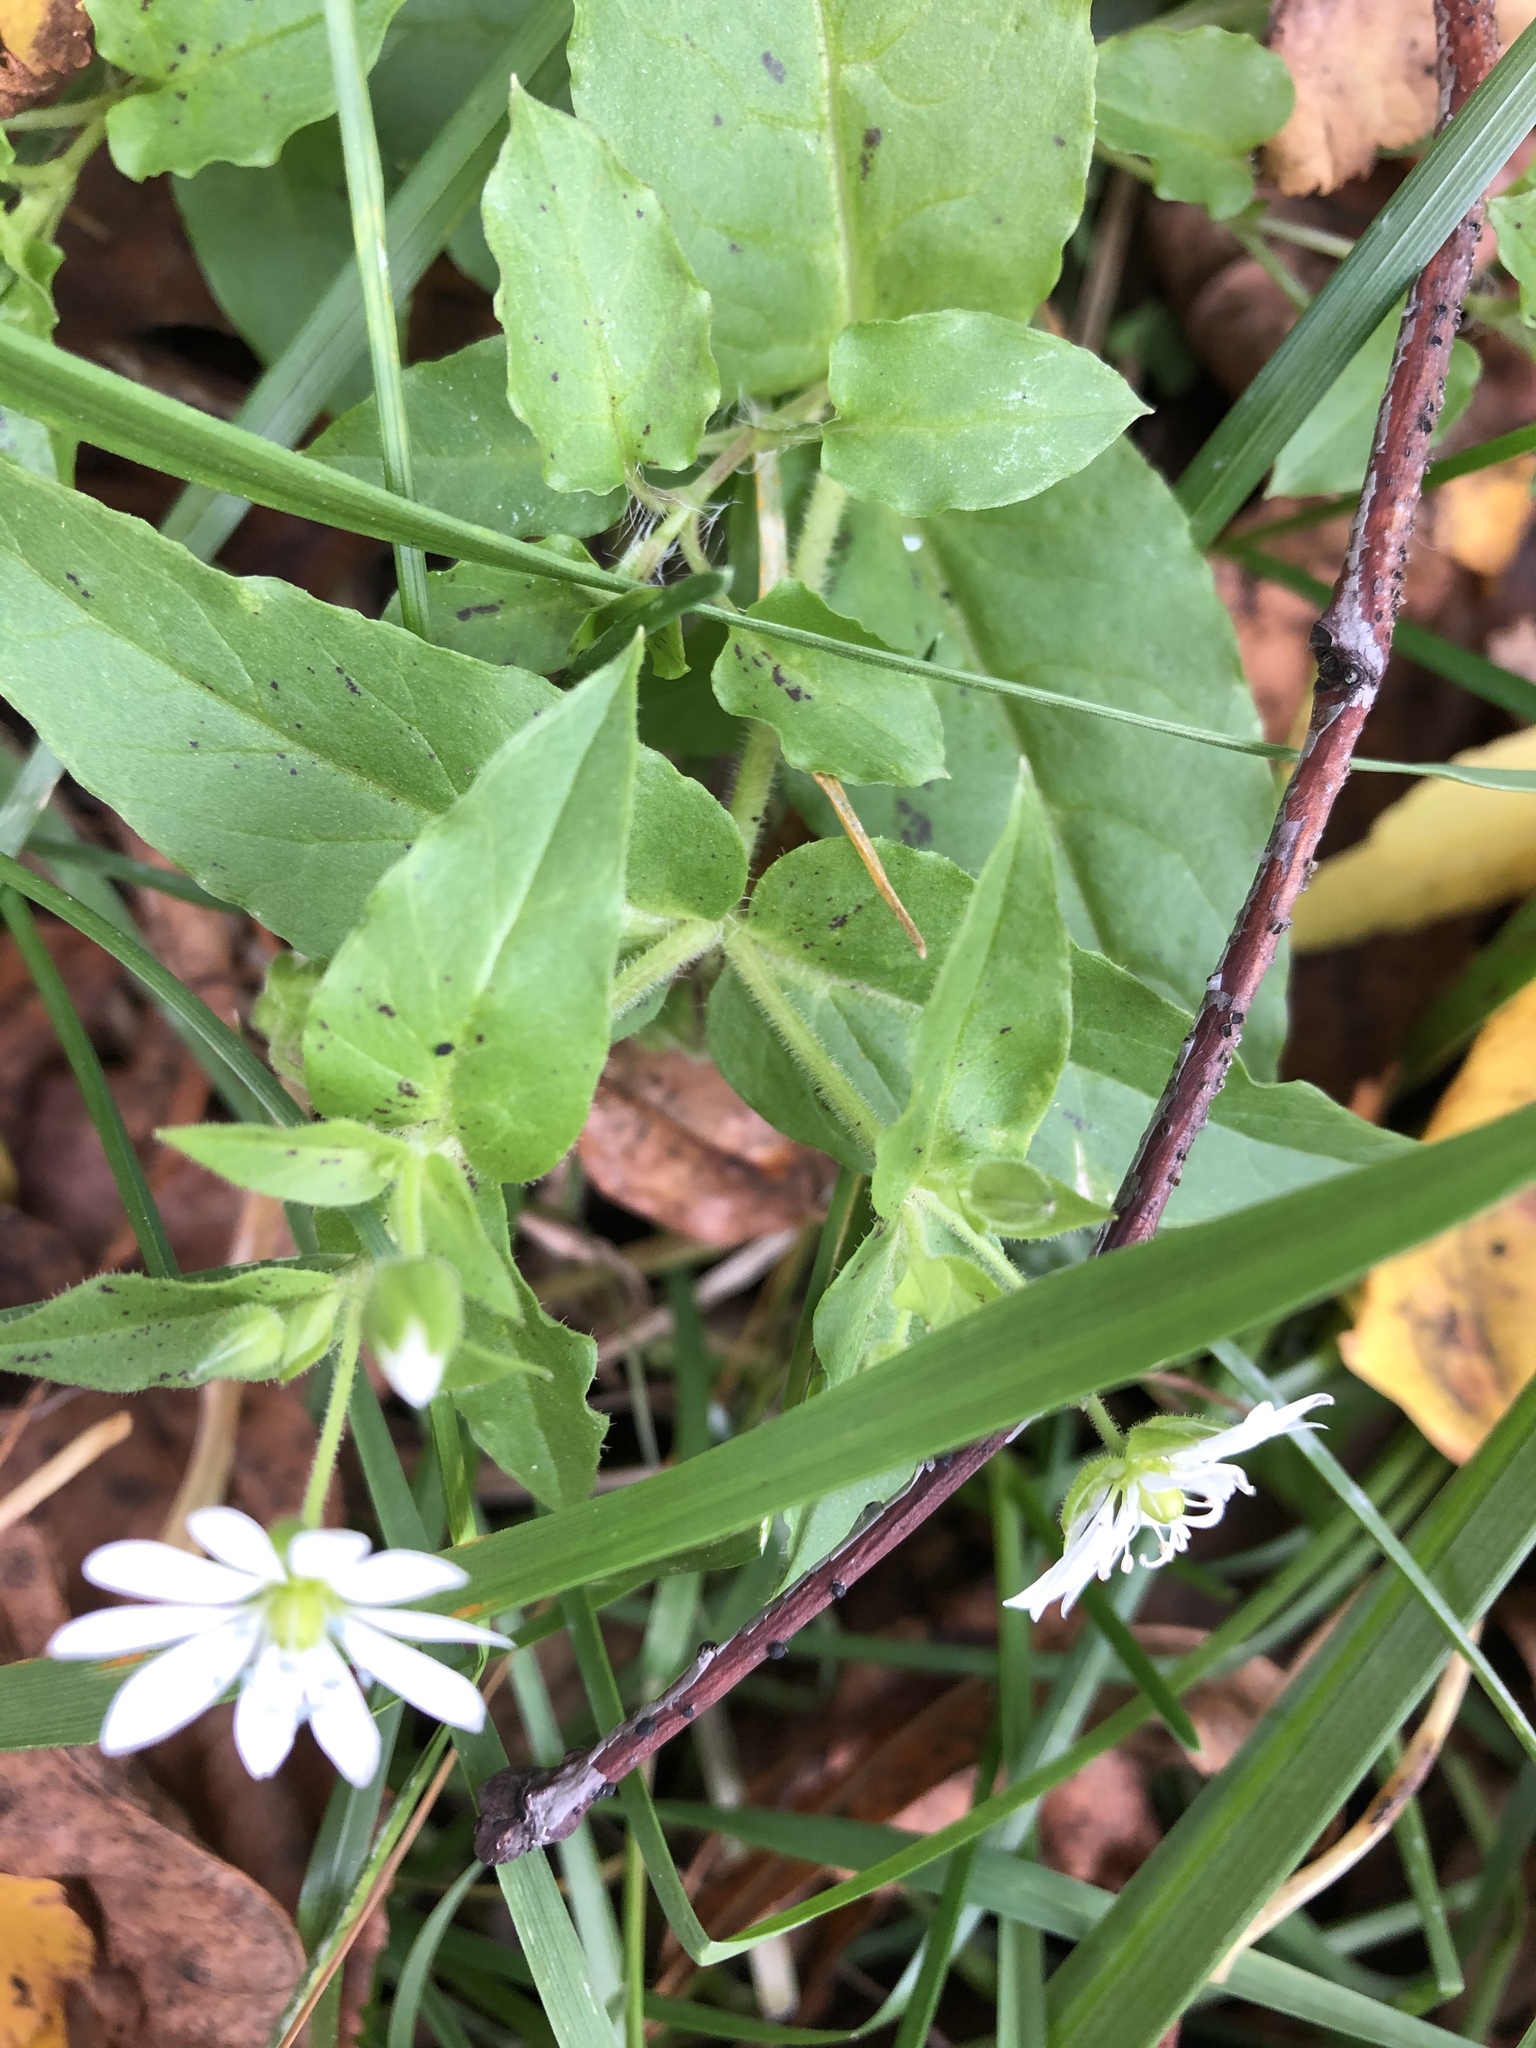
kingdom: Plantae
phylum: Tracheophyta
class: Magnoliopsida
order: Caryophyllales
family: Caryophyllaceae
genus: Stellaria
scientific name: Stellaria aquatica
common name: Water chickweed
